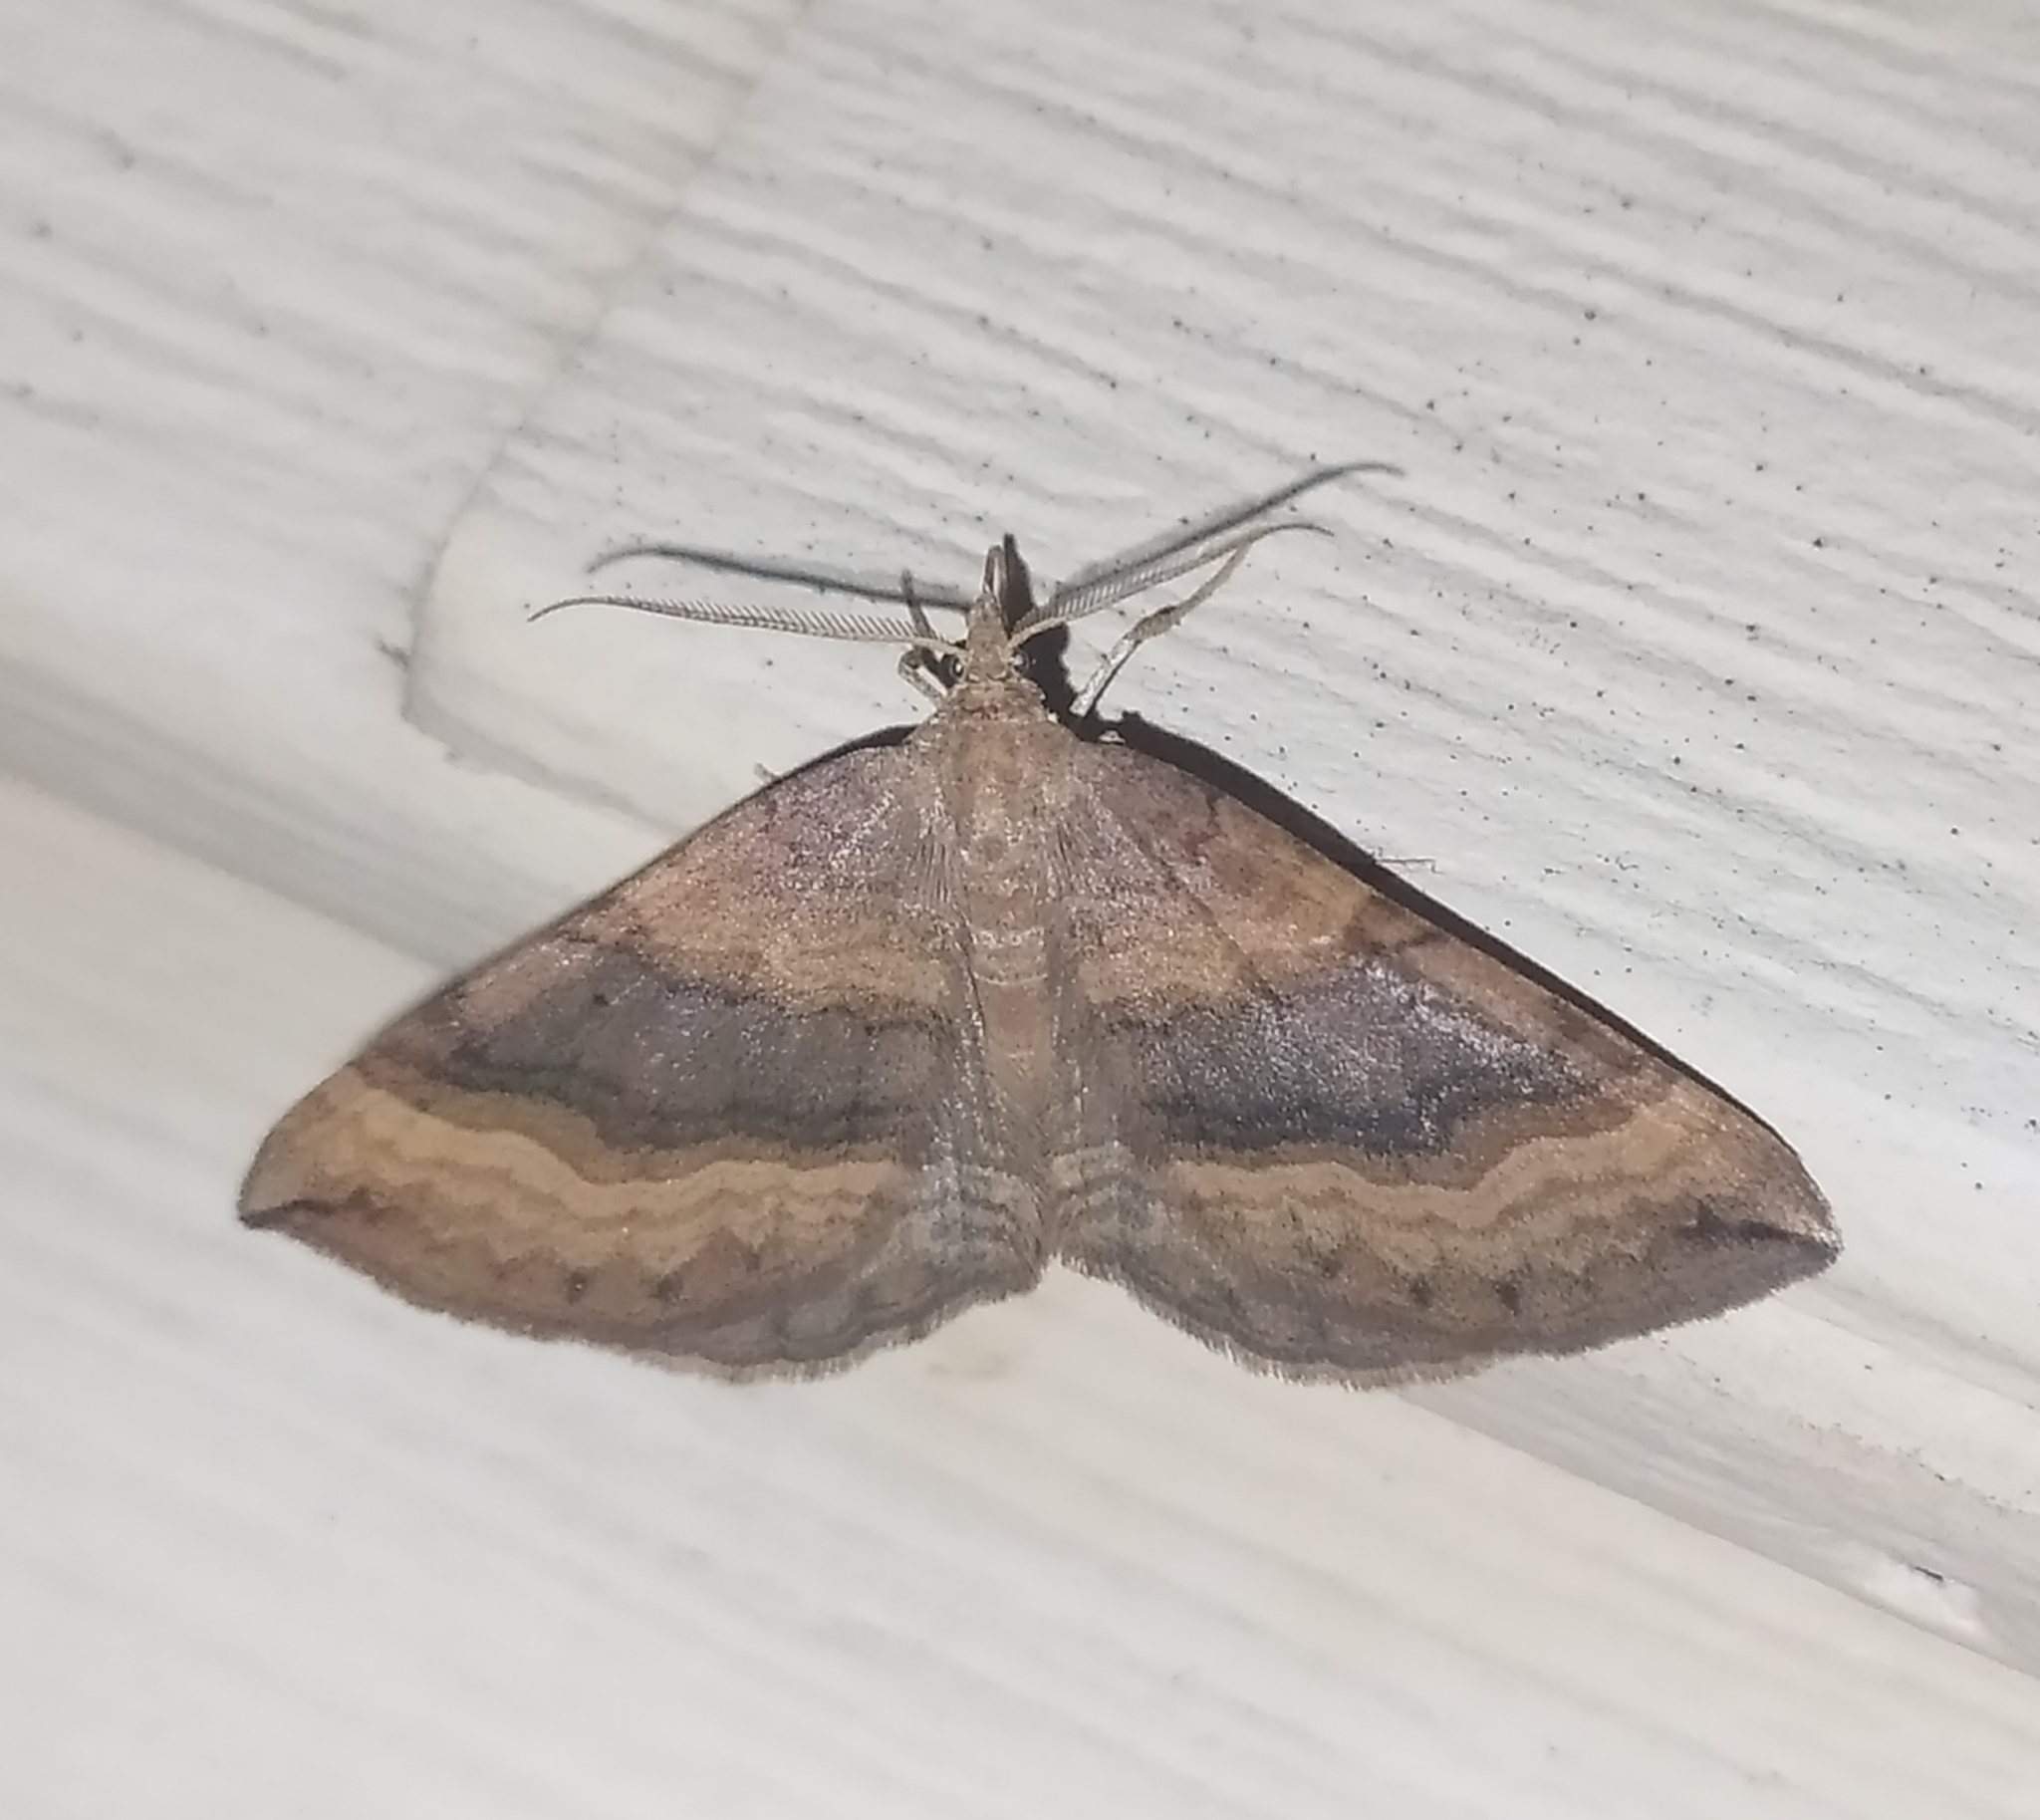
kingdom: Animalia
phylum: Arthropoda
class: Insecta
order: Lepidoptera
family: Geometridae
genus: Scotopteryx
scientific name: Scotopteryx chenopodiata
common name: Shaded broad-bar
